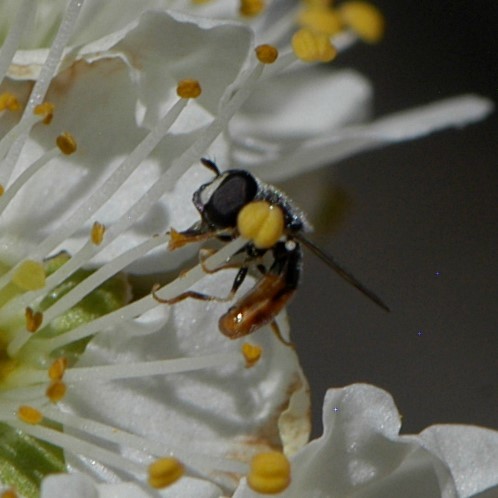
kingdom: Animalia
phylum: Arthropoda
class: Insecta
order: Diptera
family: Syrphidae
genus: Paragus
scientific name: Paragus haemorrhous
